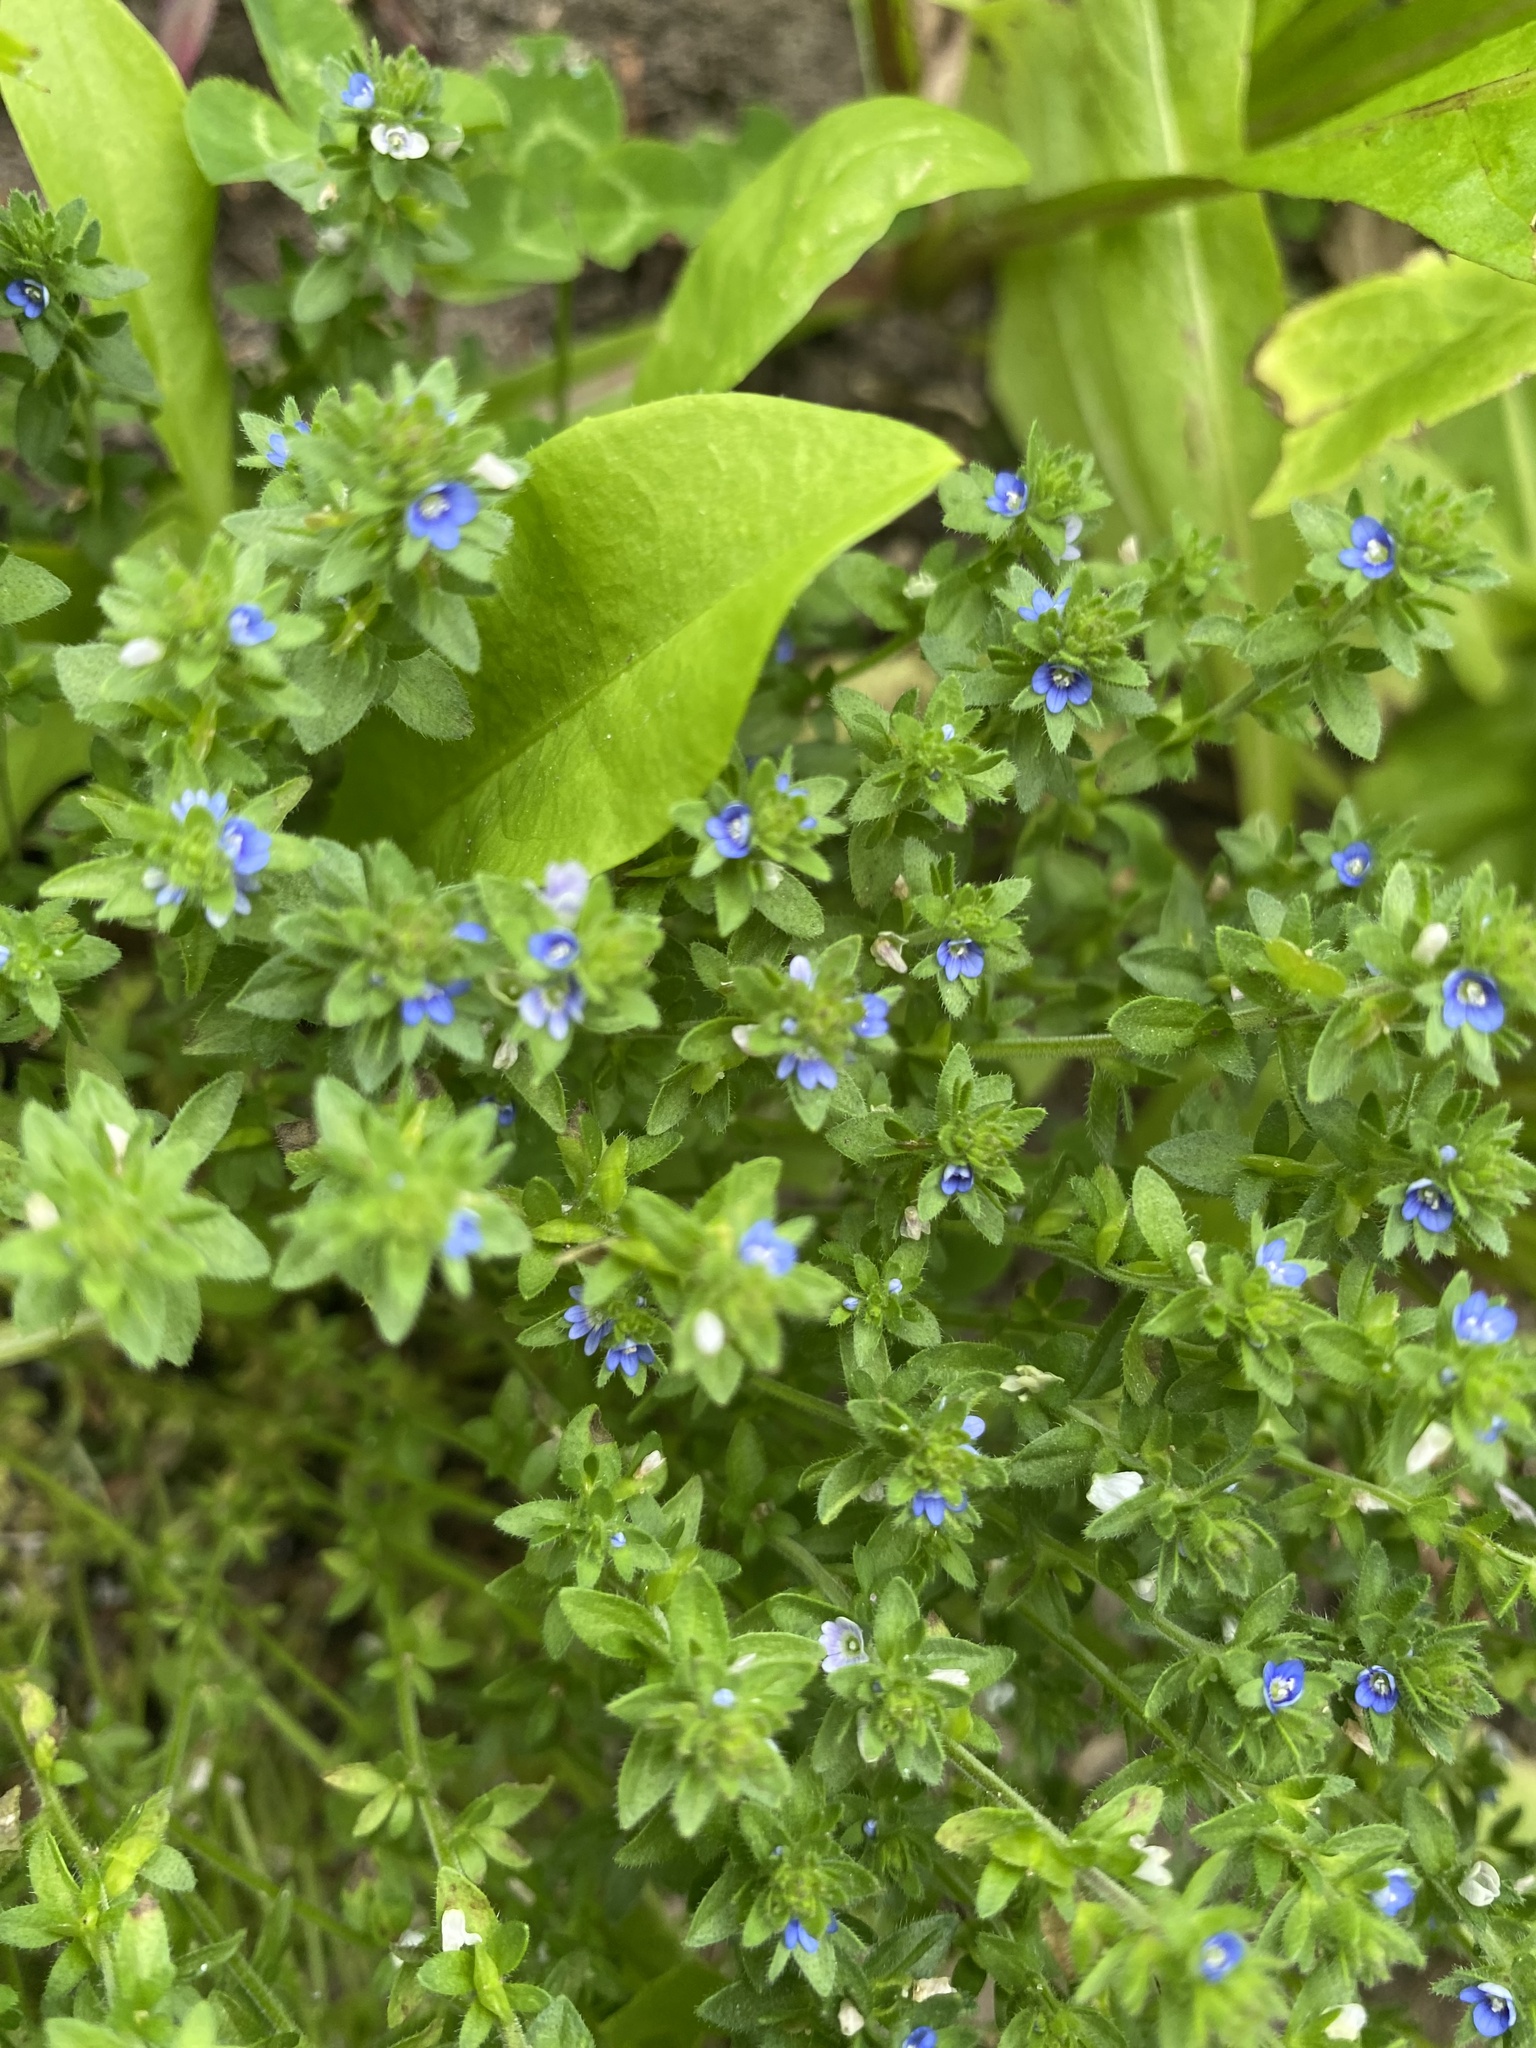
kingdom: Plantae
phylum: Tracheophyta
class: Magnoliopsida
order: Lamiales
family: Plantaginaceae
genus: Veronica
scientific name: Veronica arvensis
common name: Corn speedwell
